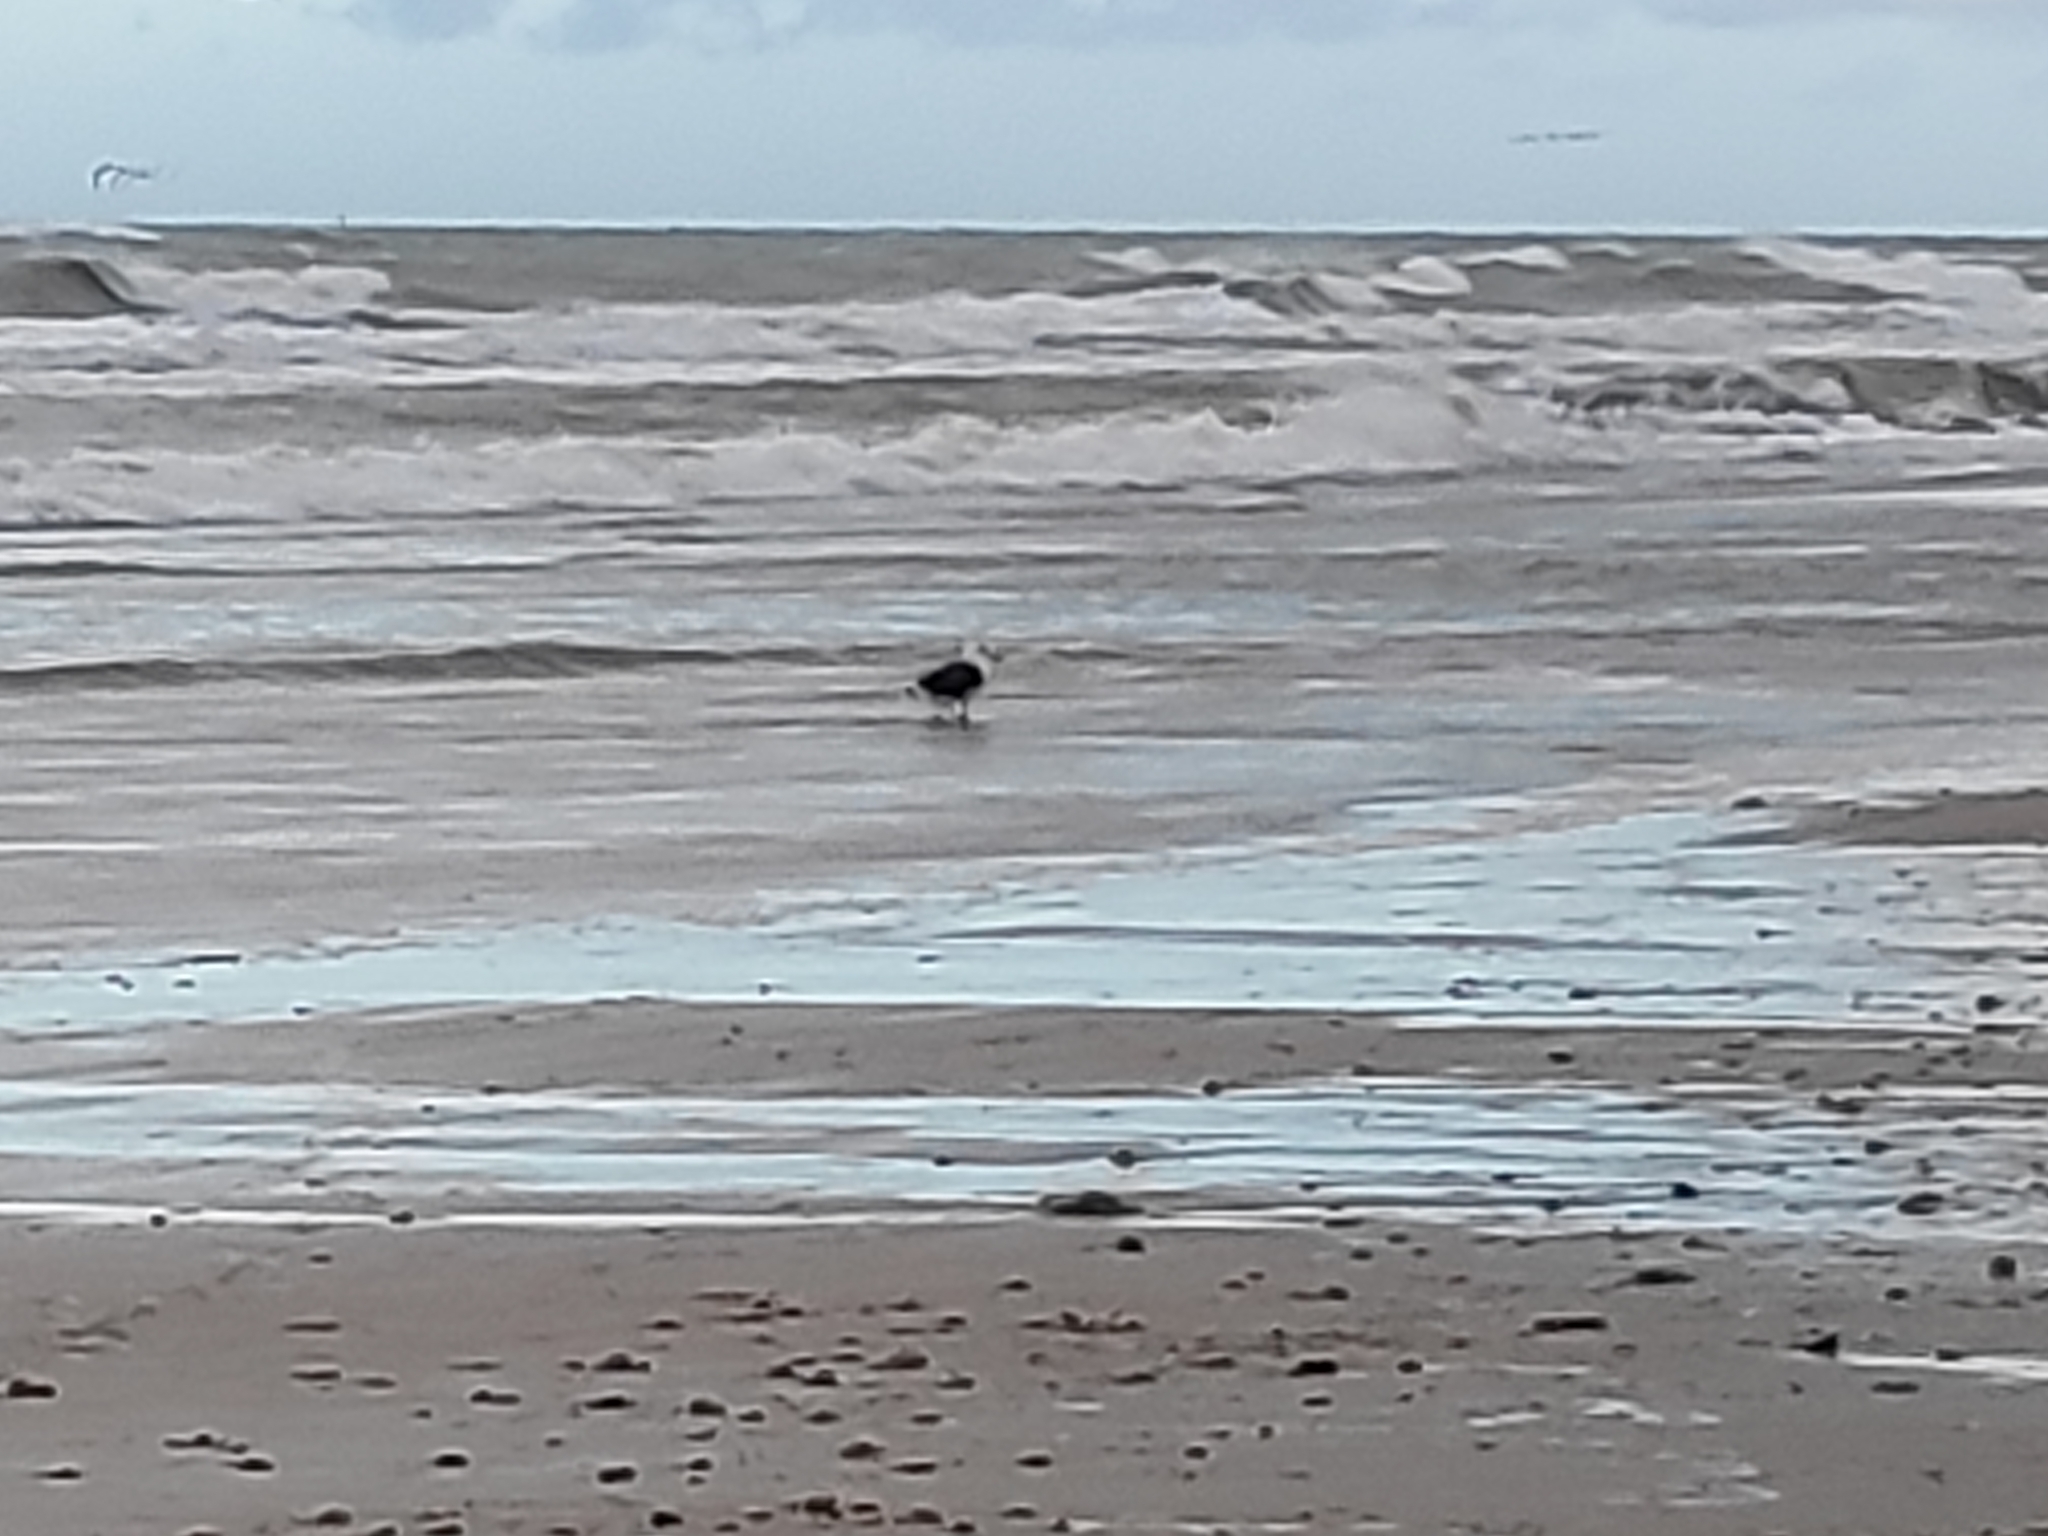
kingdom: Animalia
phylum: Chordata
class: Aves
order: Charadriiformes
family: Laridae
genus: Larus
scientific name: Larus marinus
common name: Great black-backed gull
